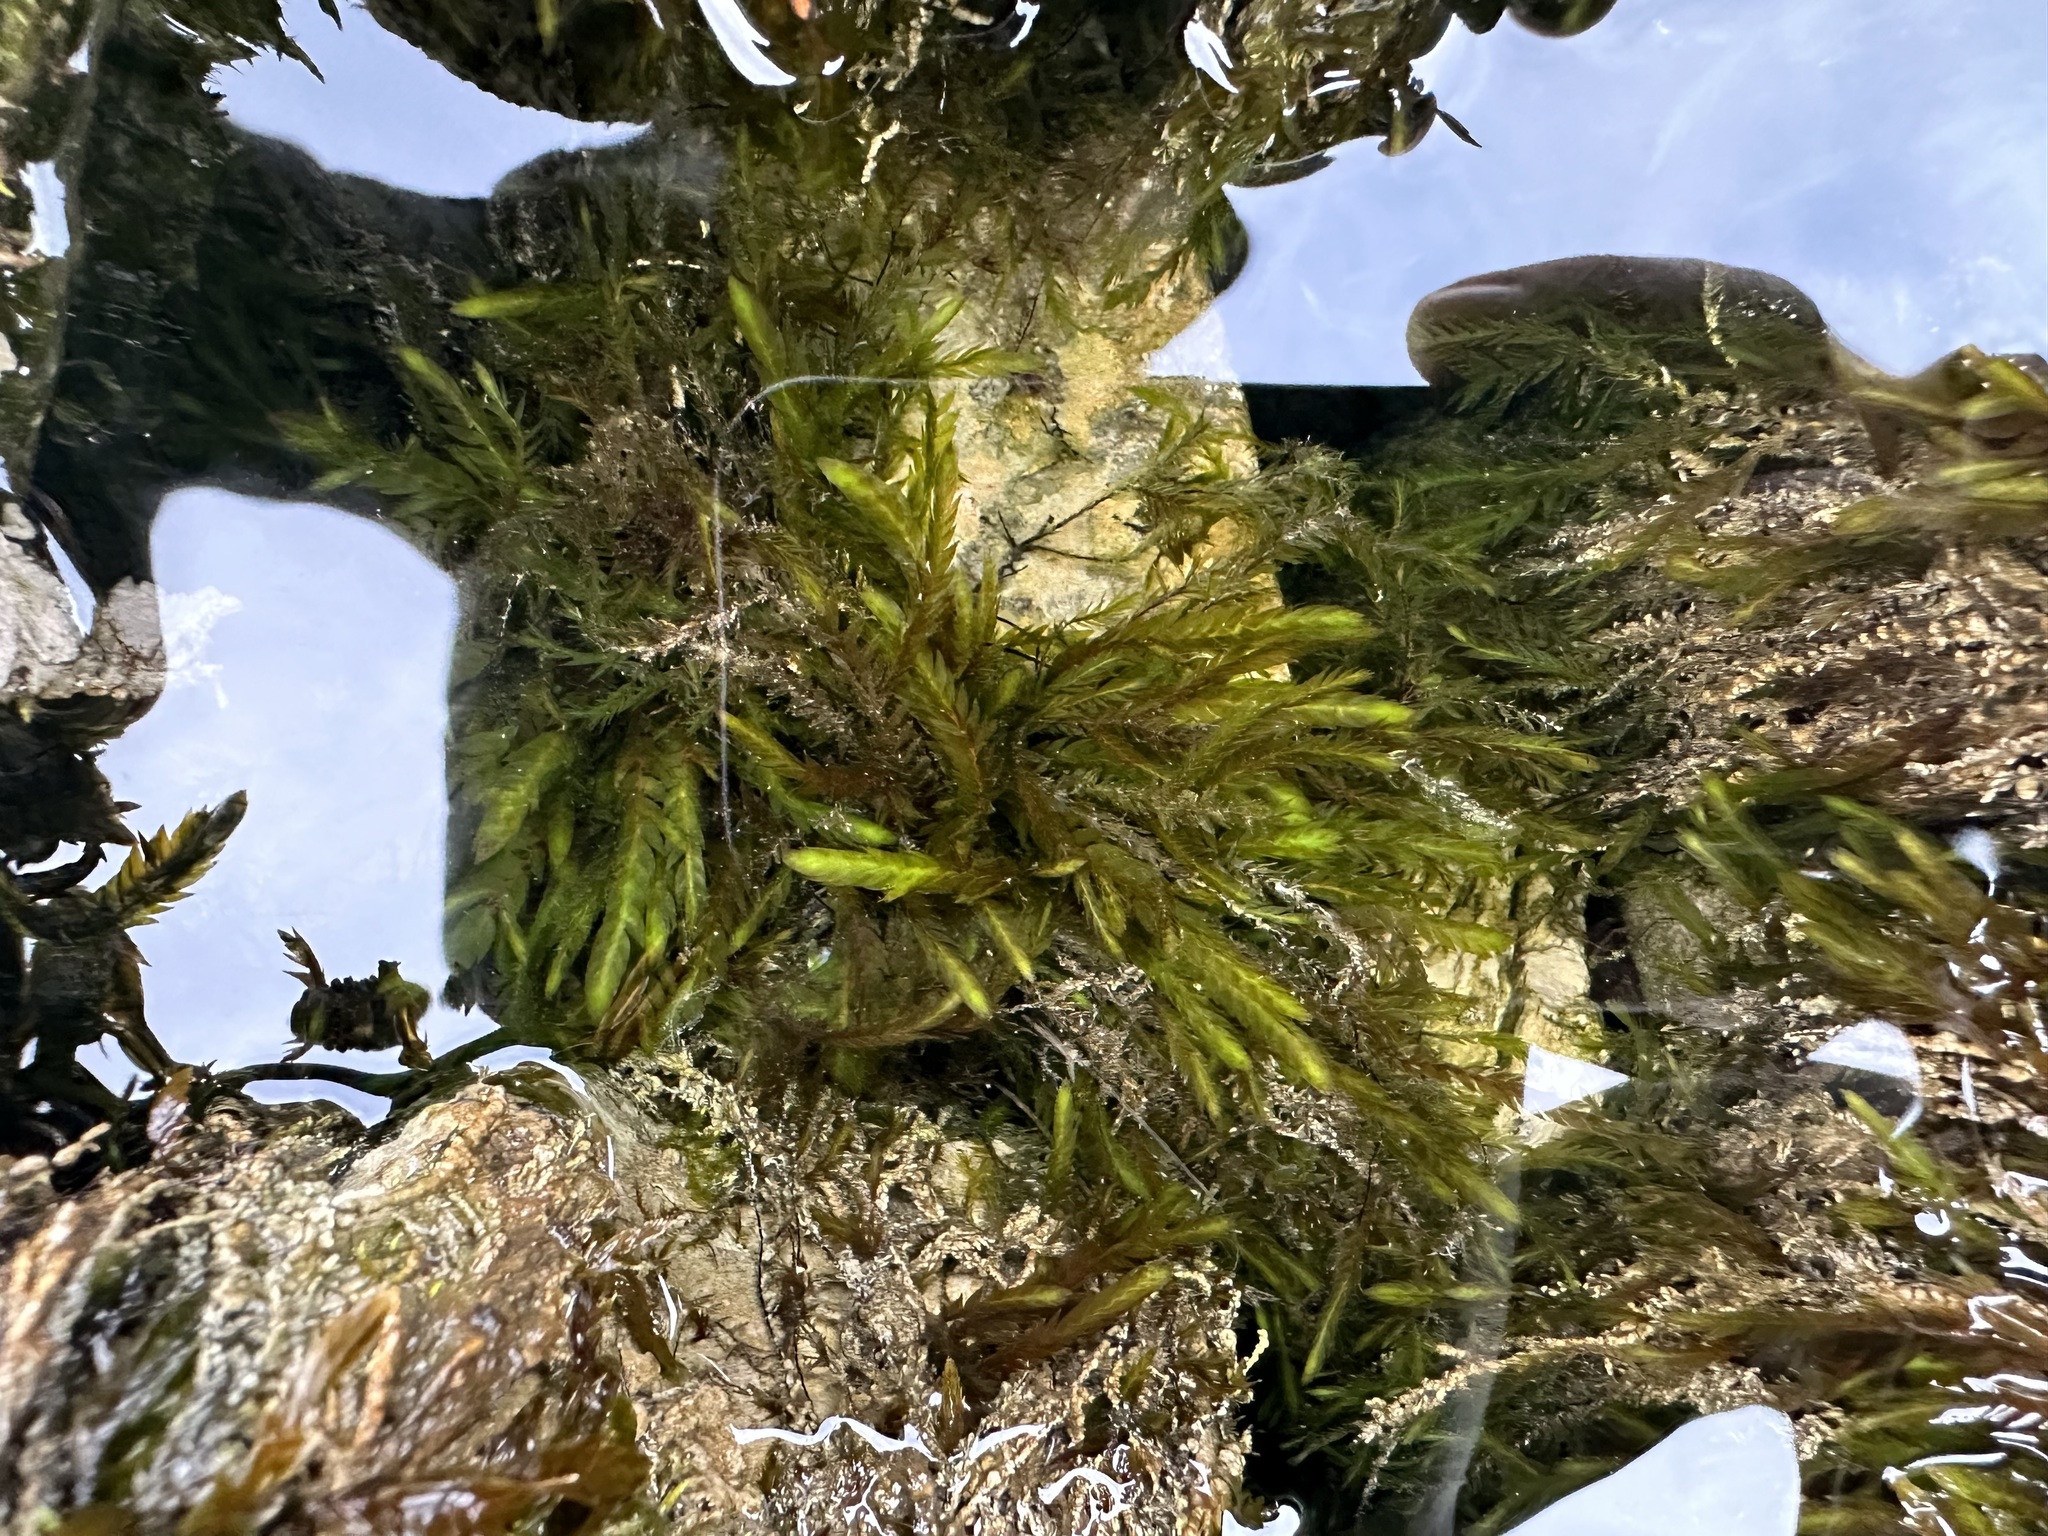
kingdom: Plantae
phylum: Bryophyta
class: Bryopsida
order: Hypnales
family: Fontinalaceae
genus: Fontinalis
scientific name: Fontinalis antipyretica
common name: Greater water-moss
